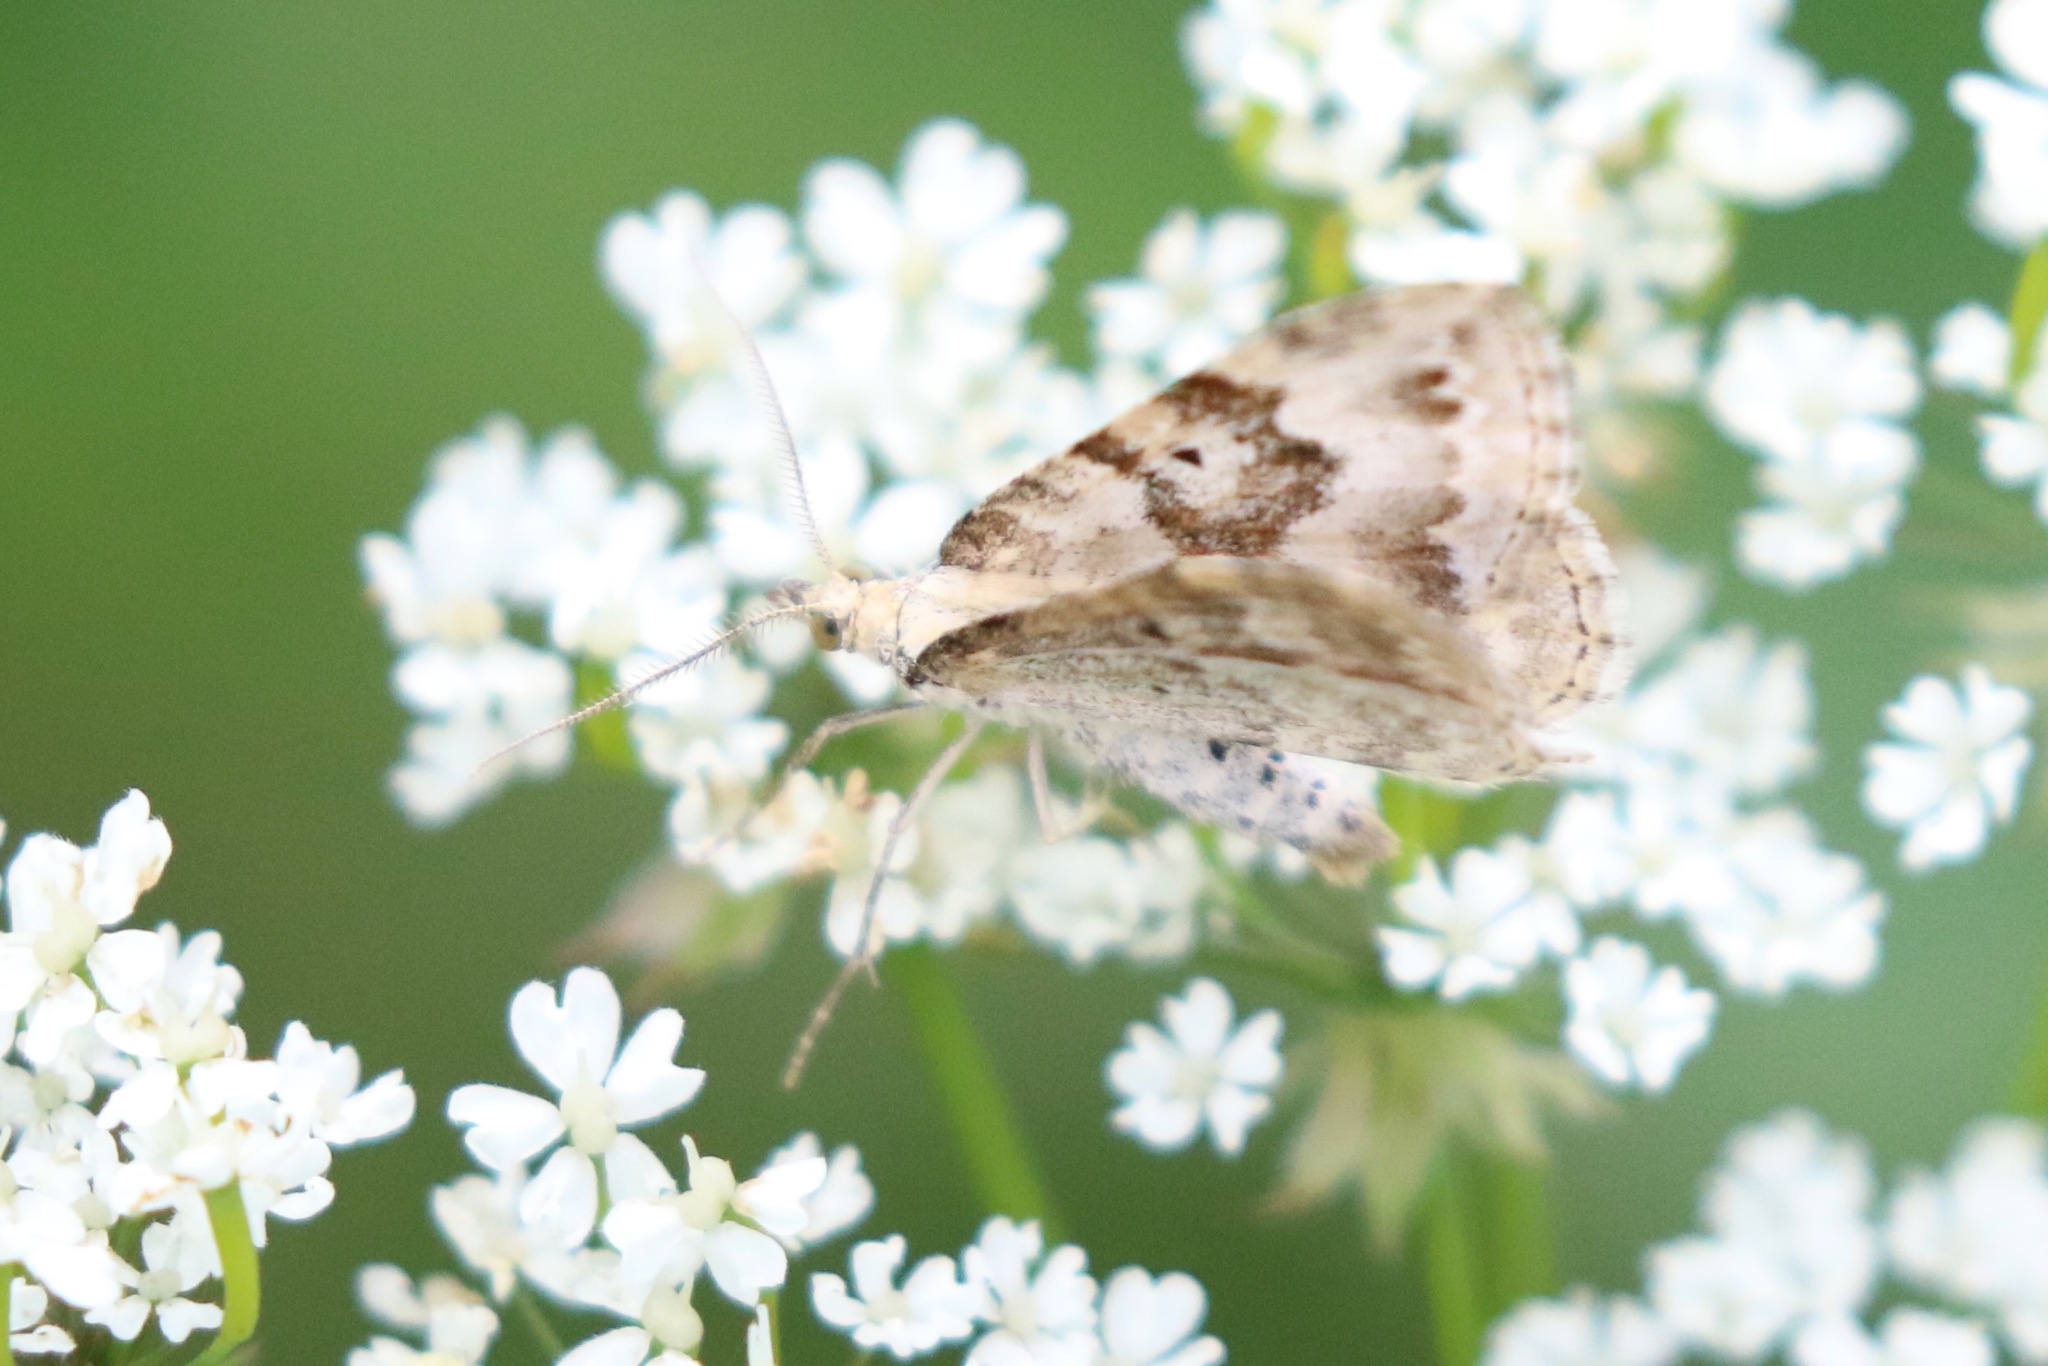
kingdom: Animalia
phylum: Arthropoda
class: Insecta
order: Lepidoptera
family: Geometridae
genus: Xanthorhoe
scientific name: Xanthorhoe montanata
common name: Silver-ground carpet
